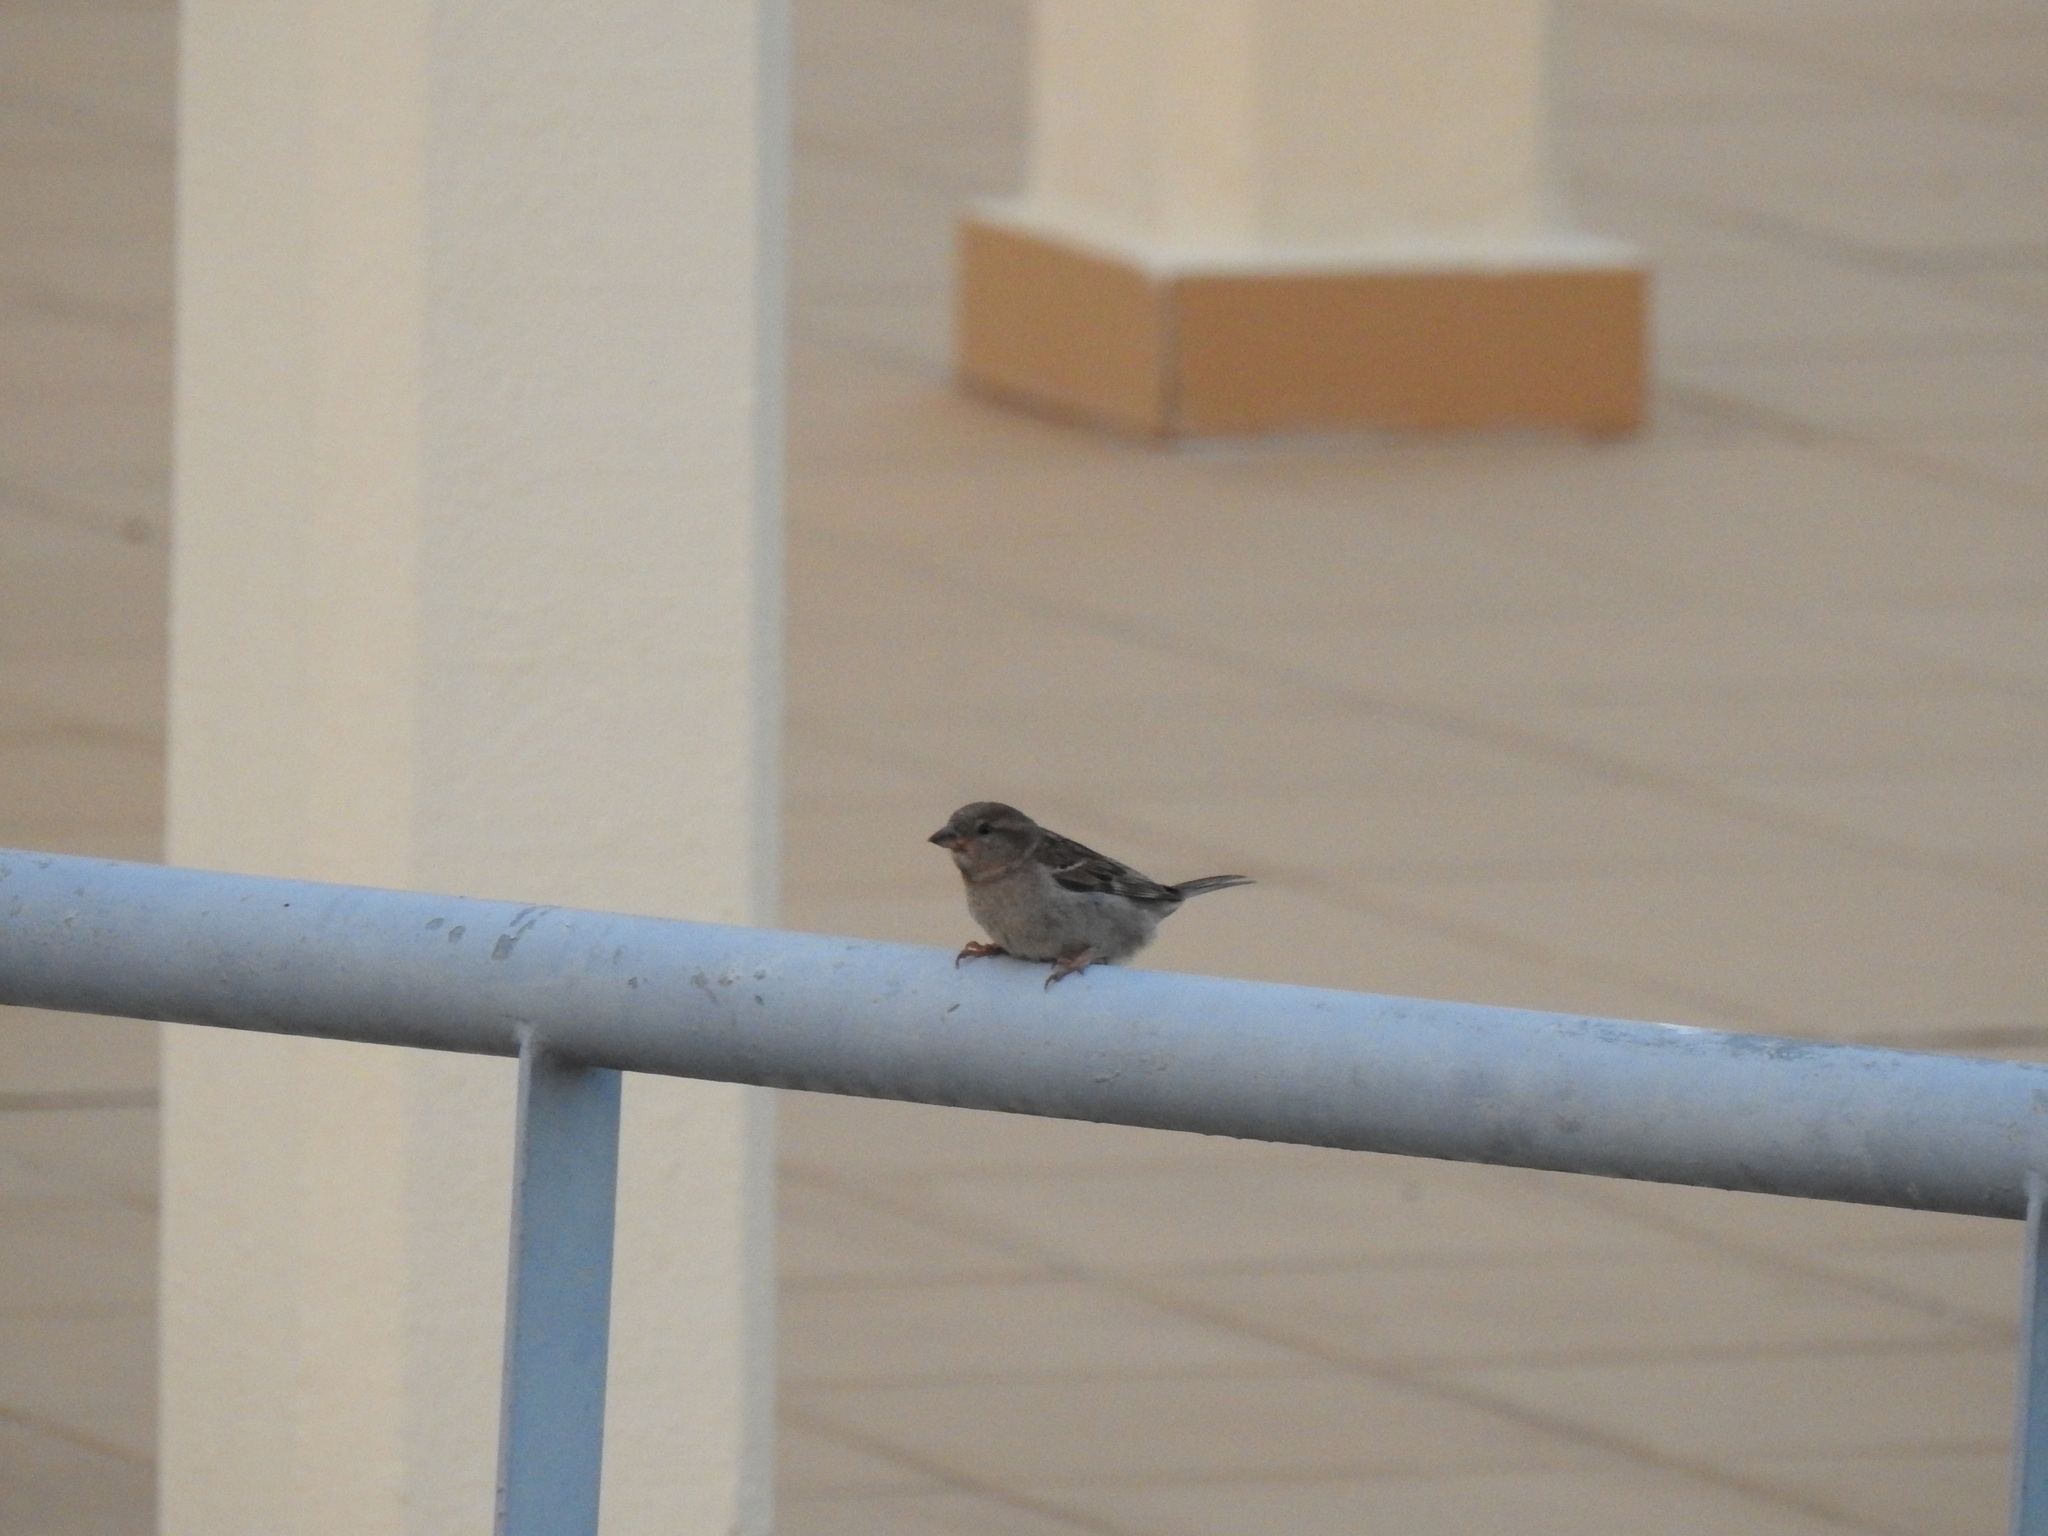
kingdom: Animalia
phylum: Chordata
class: Aves
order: Passeriformes
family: Passeridae
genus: Passer
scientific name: Passer domesticus
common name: House sparrow
